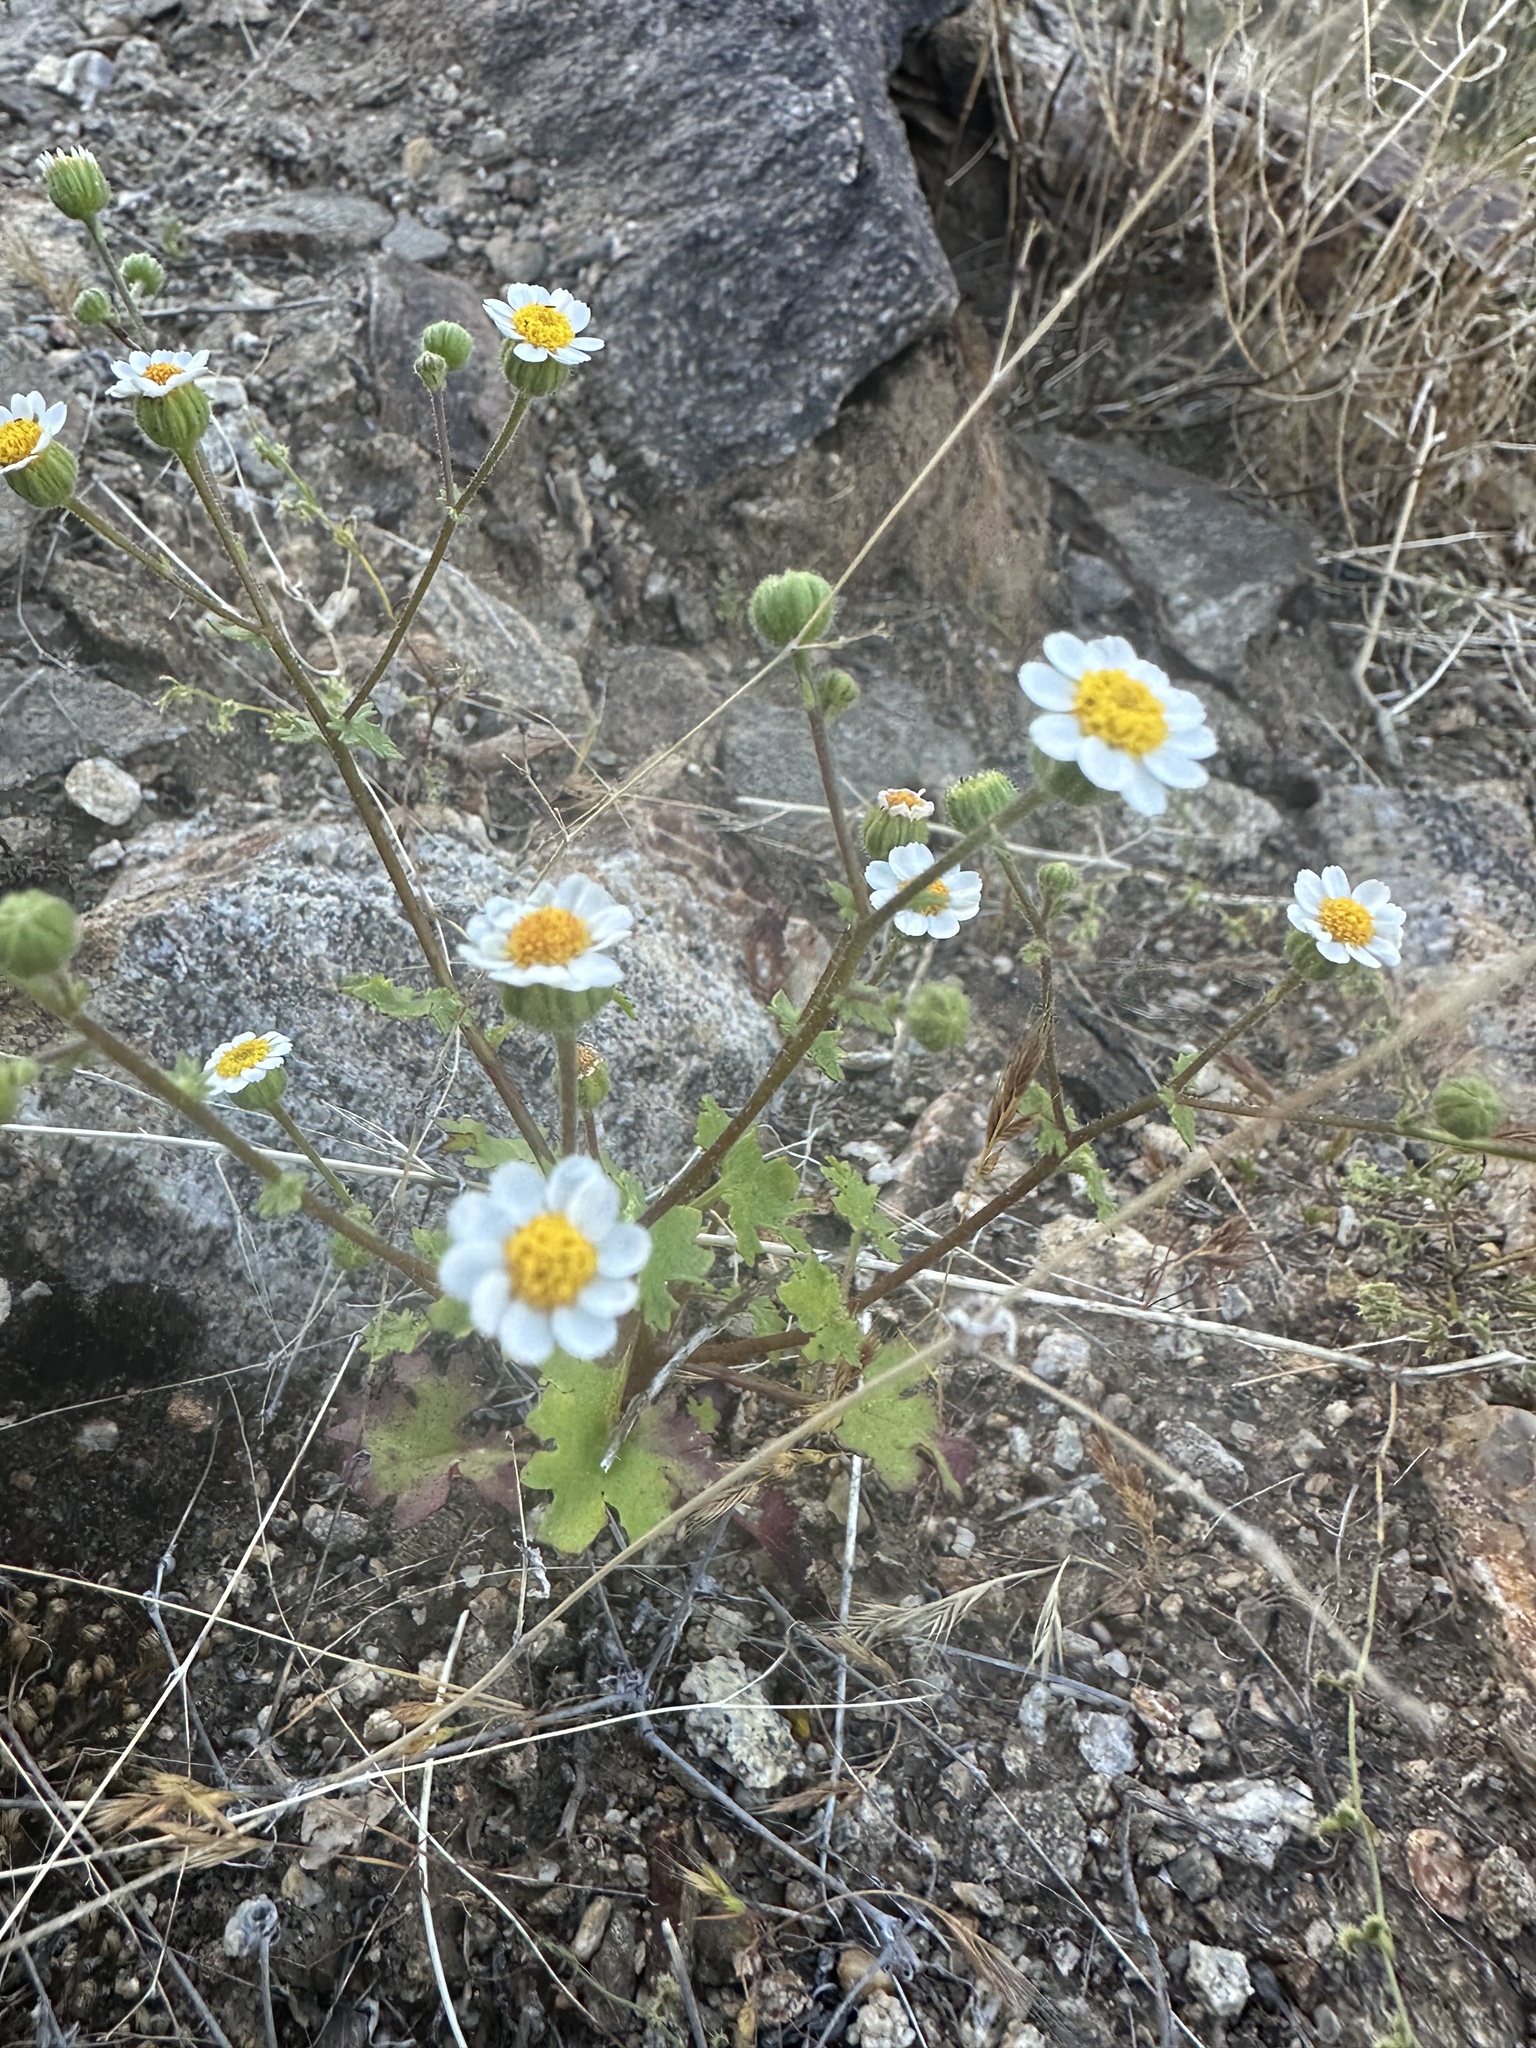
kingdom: Plantae
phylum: Tracheophyta
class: Magnoliopsida
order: Asterales
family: Asteraceae
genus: Laphamia
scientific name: Laphamia emoryi
